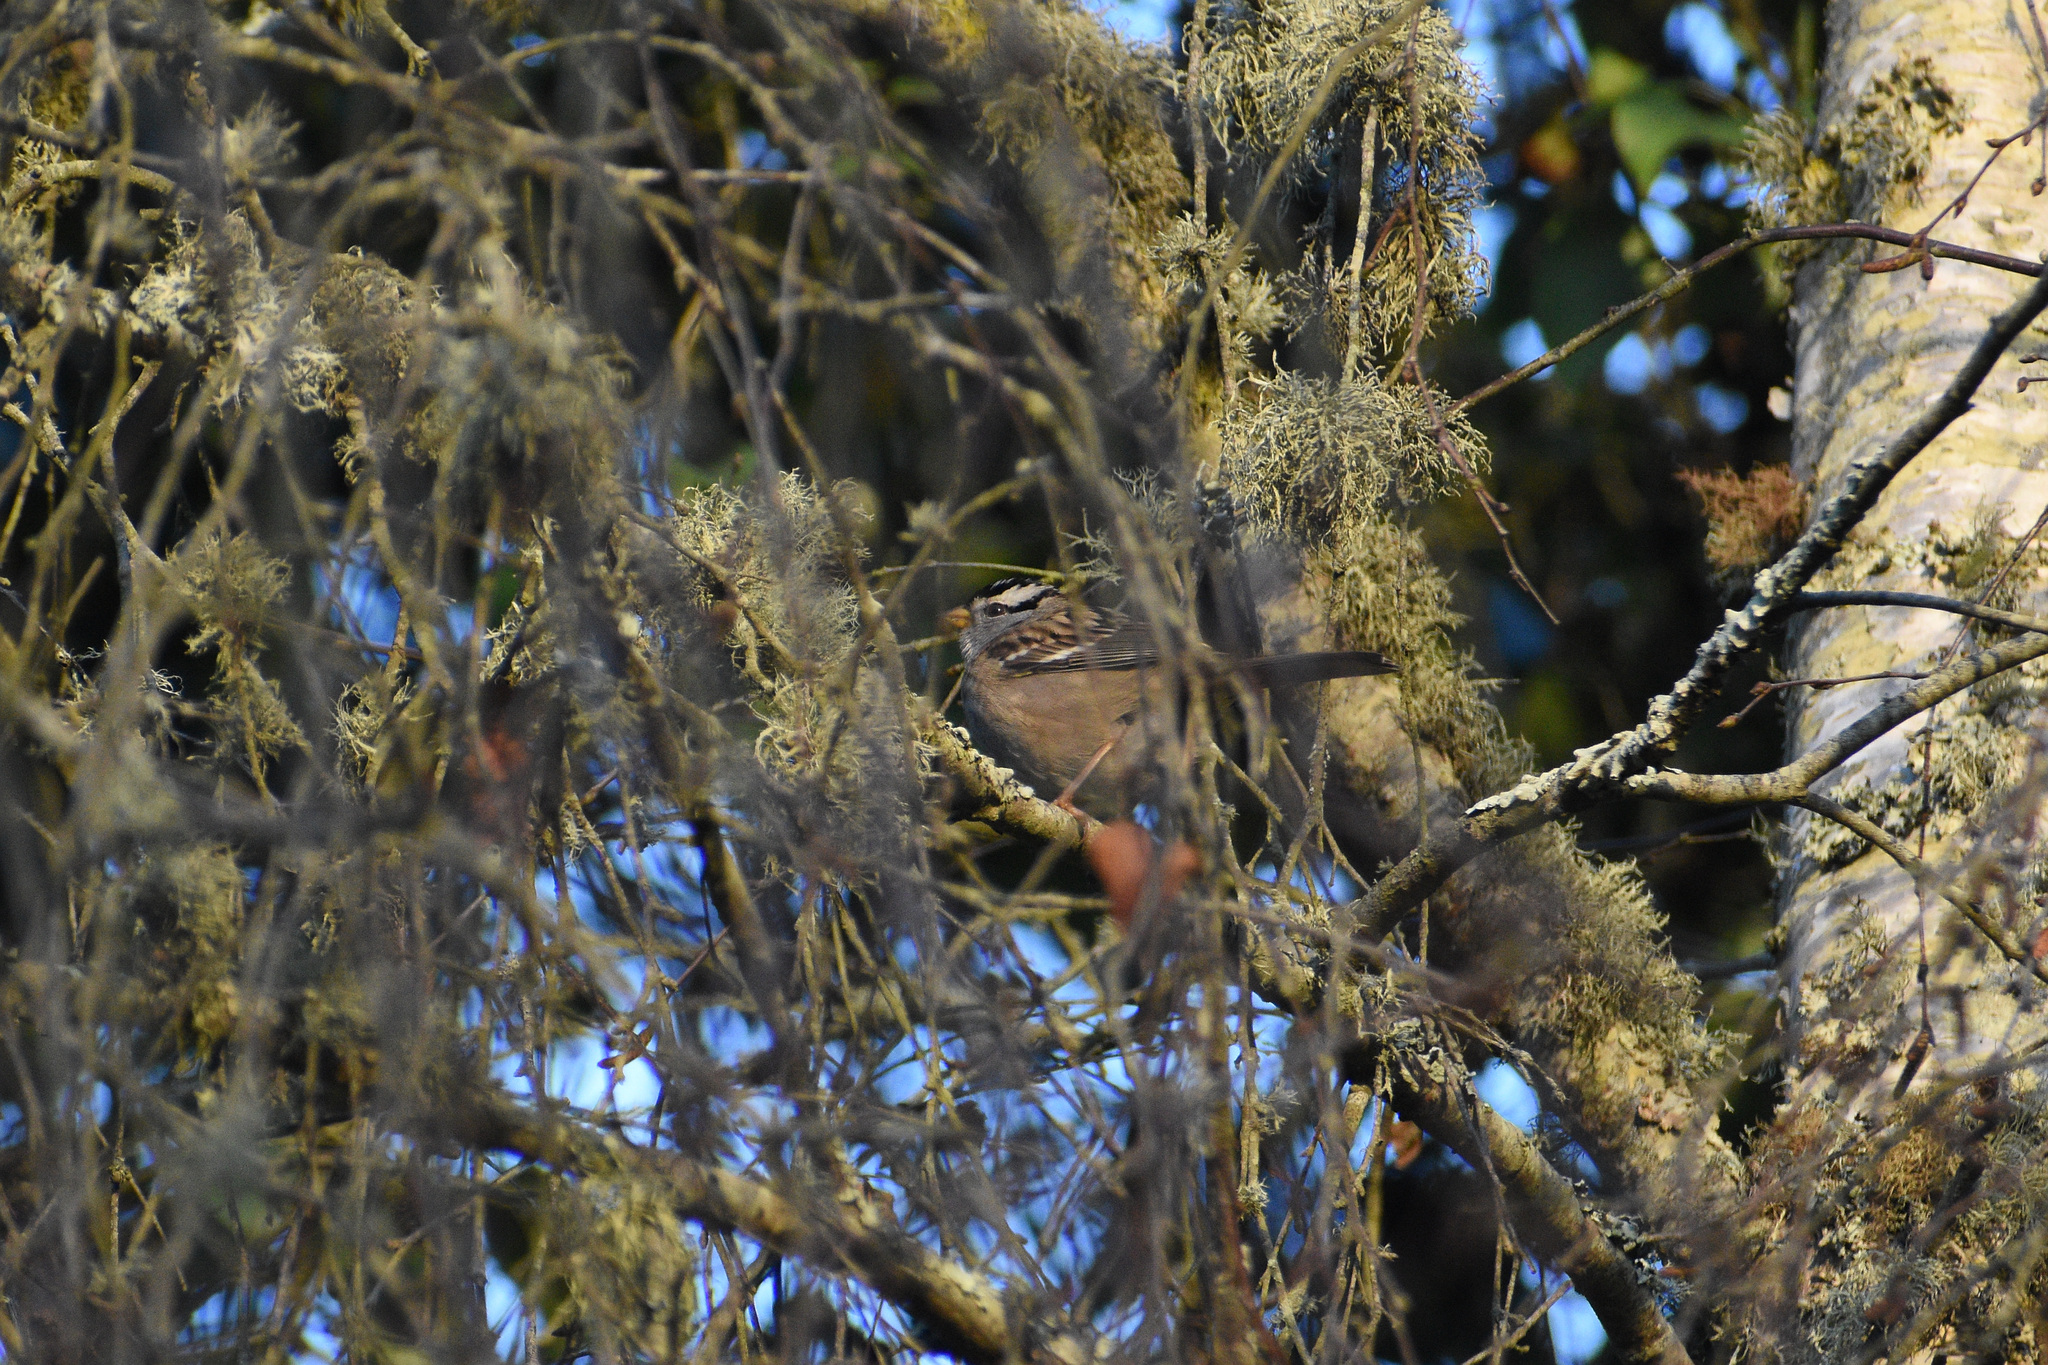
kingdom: Animalia
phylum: Chordata
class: Aves
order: Passeriformes
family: Passerellidae
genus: Zonotrichia
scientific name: Zonotrichia leucophrys
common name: White-crowned sparrow
